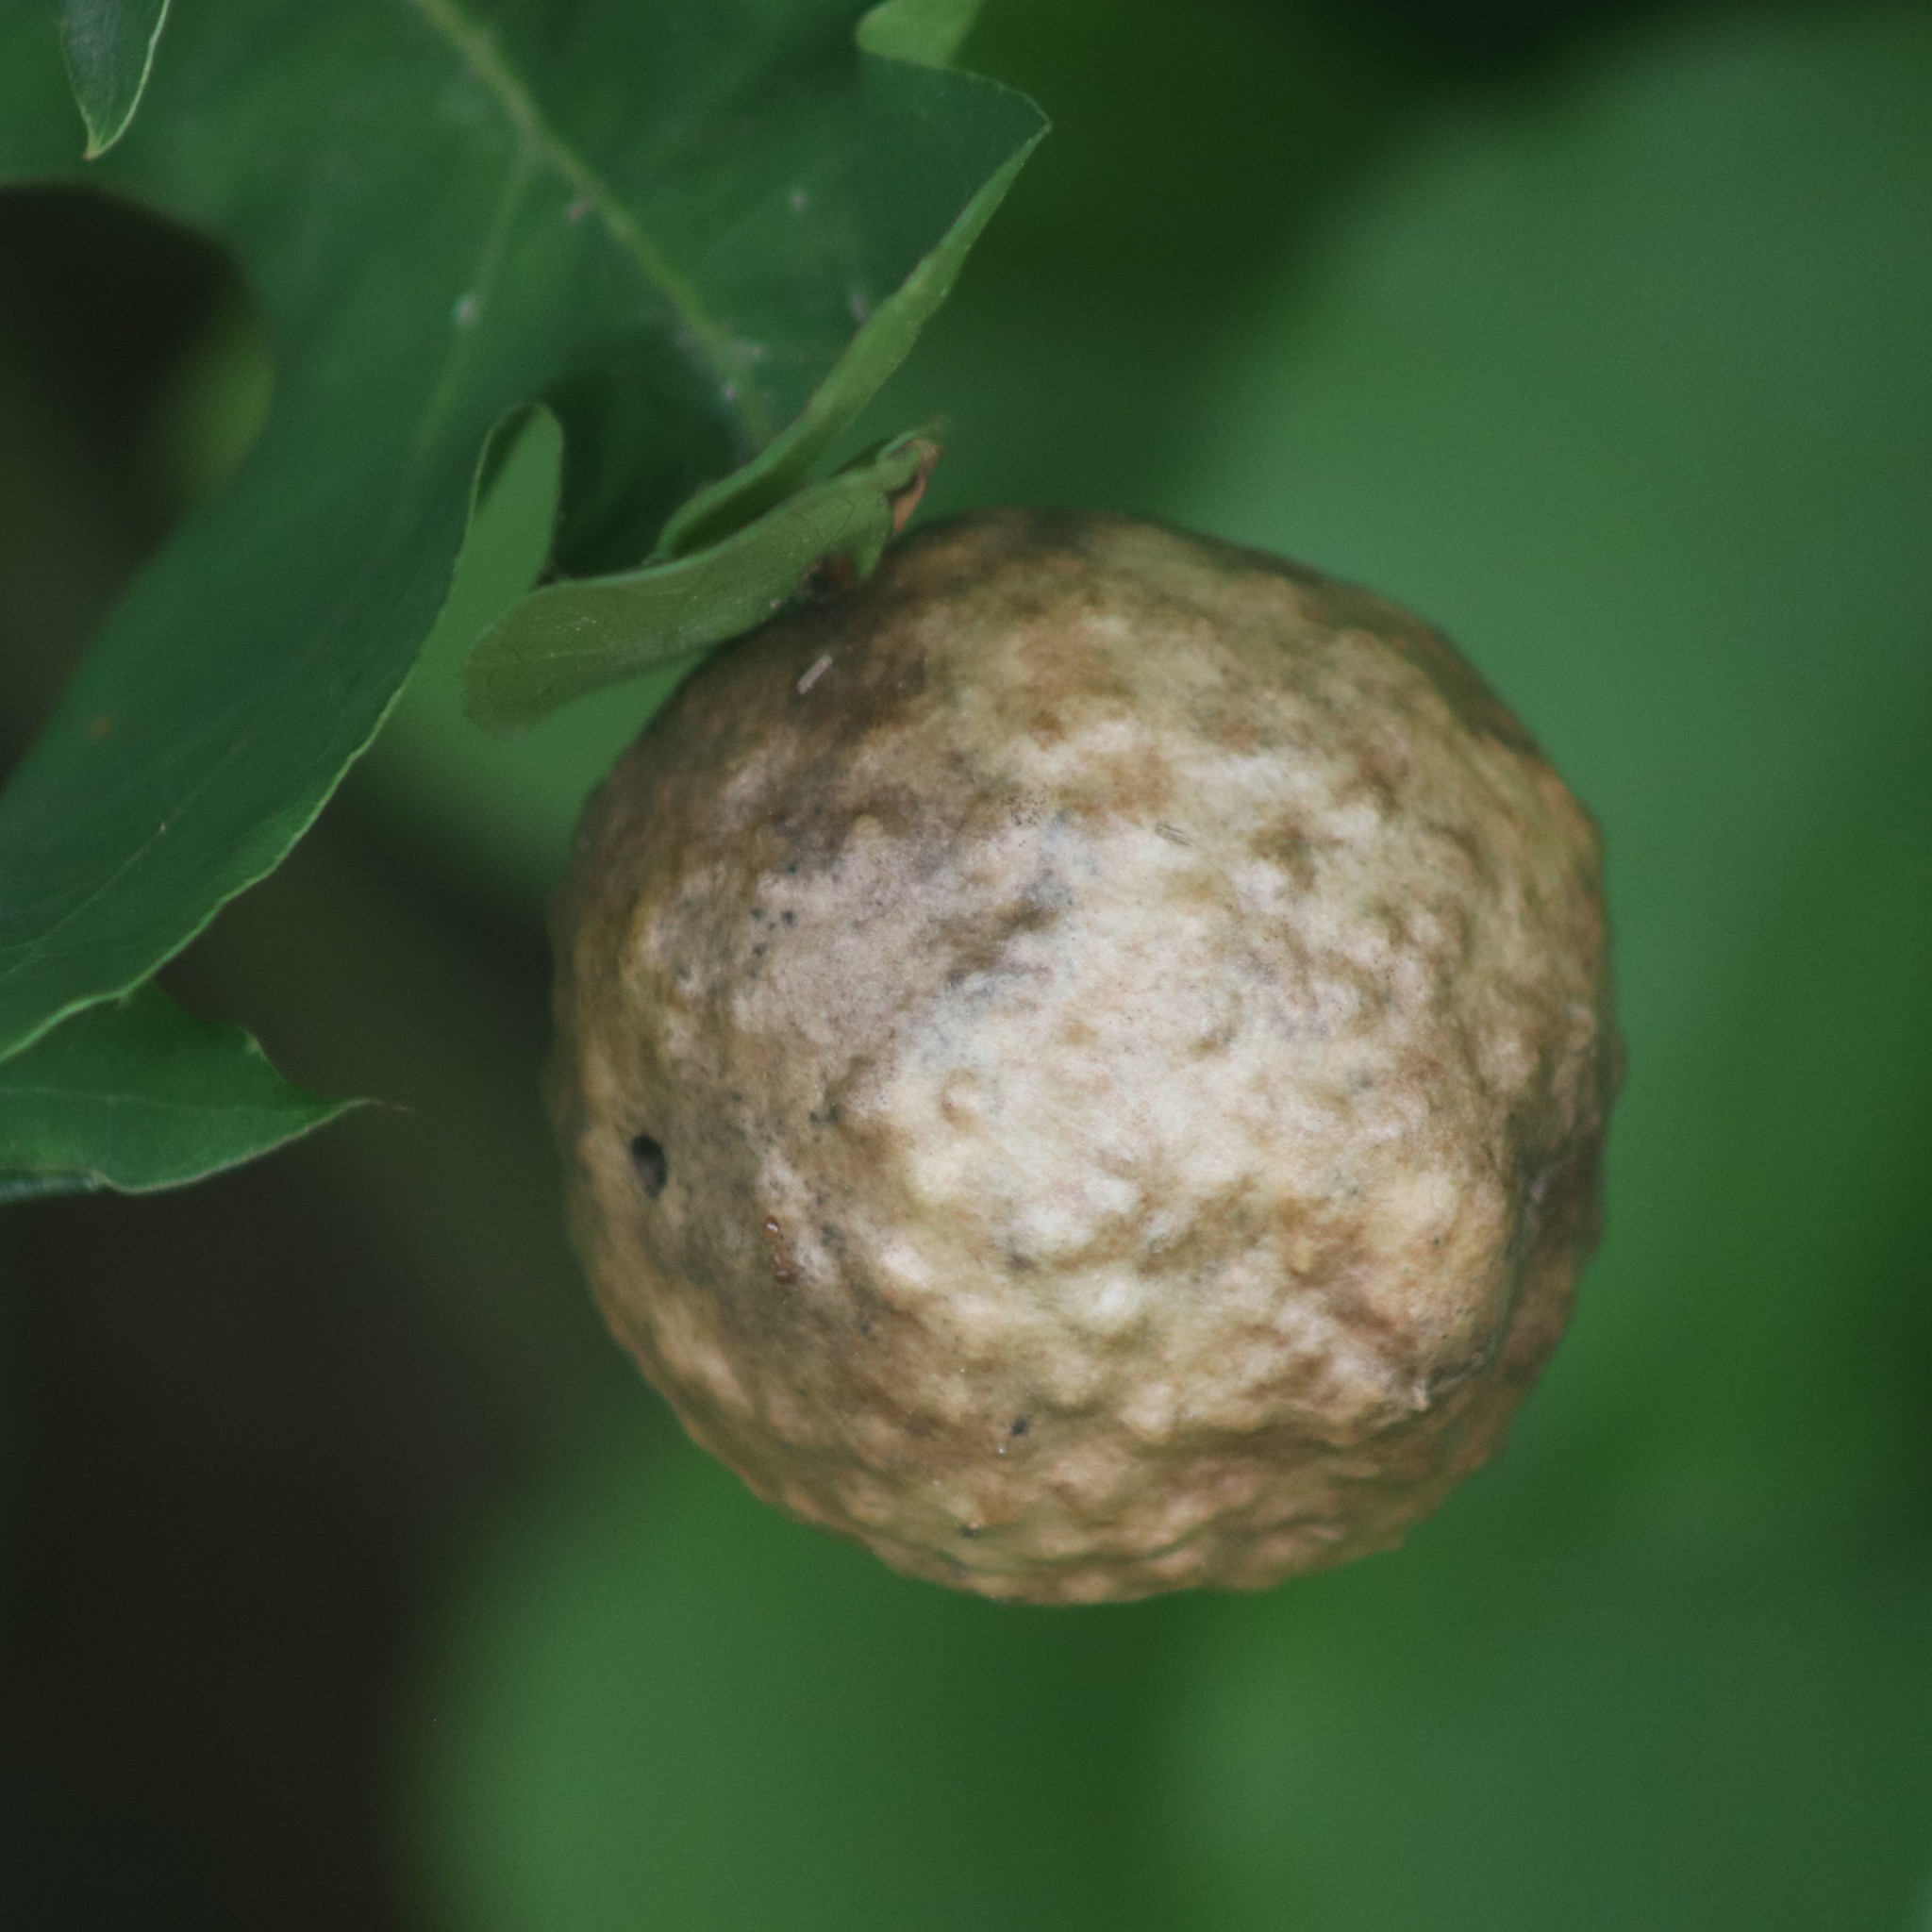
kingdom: Animalia
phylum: Arthropoda
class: Insecta
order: Hymenoptera
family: Cynipidae
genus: Amphibolips
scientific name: Amphibolips
